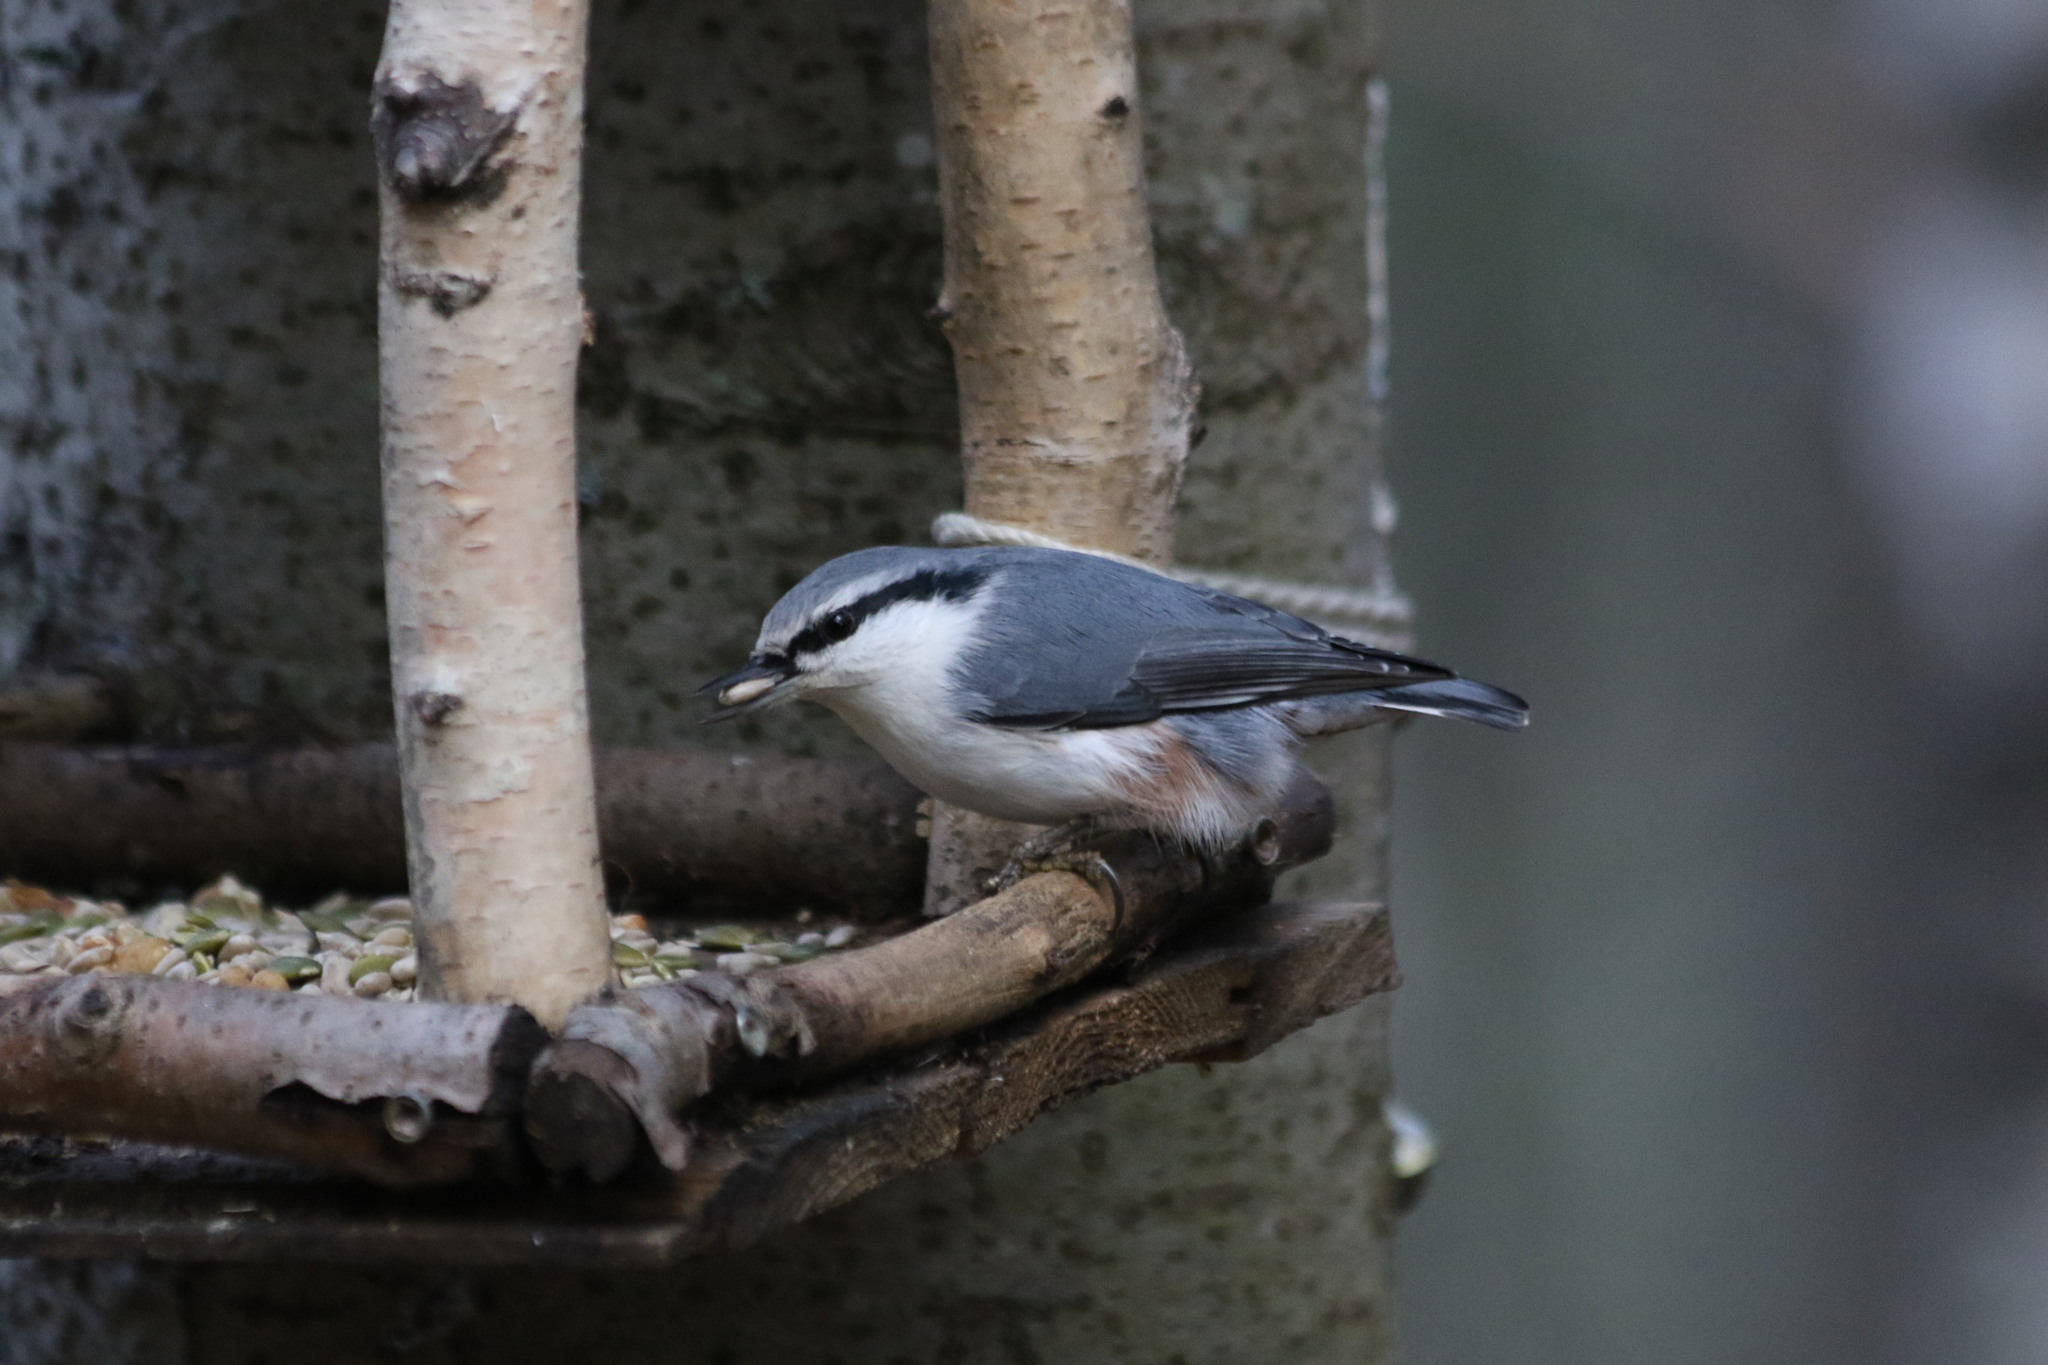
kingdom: Animalia
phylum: Chordata
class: Aves
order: Passeriformes
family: Sittidae
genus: Sitta
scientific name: Sitta europaea
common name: Eurasian nuthatch
